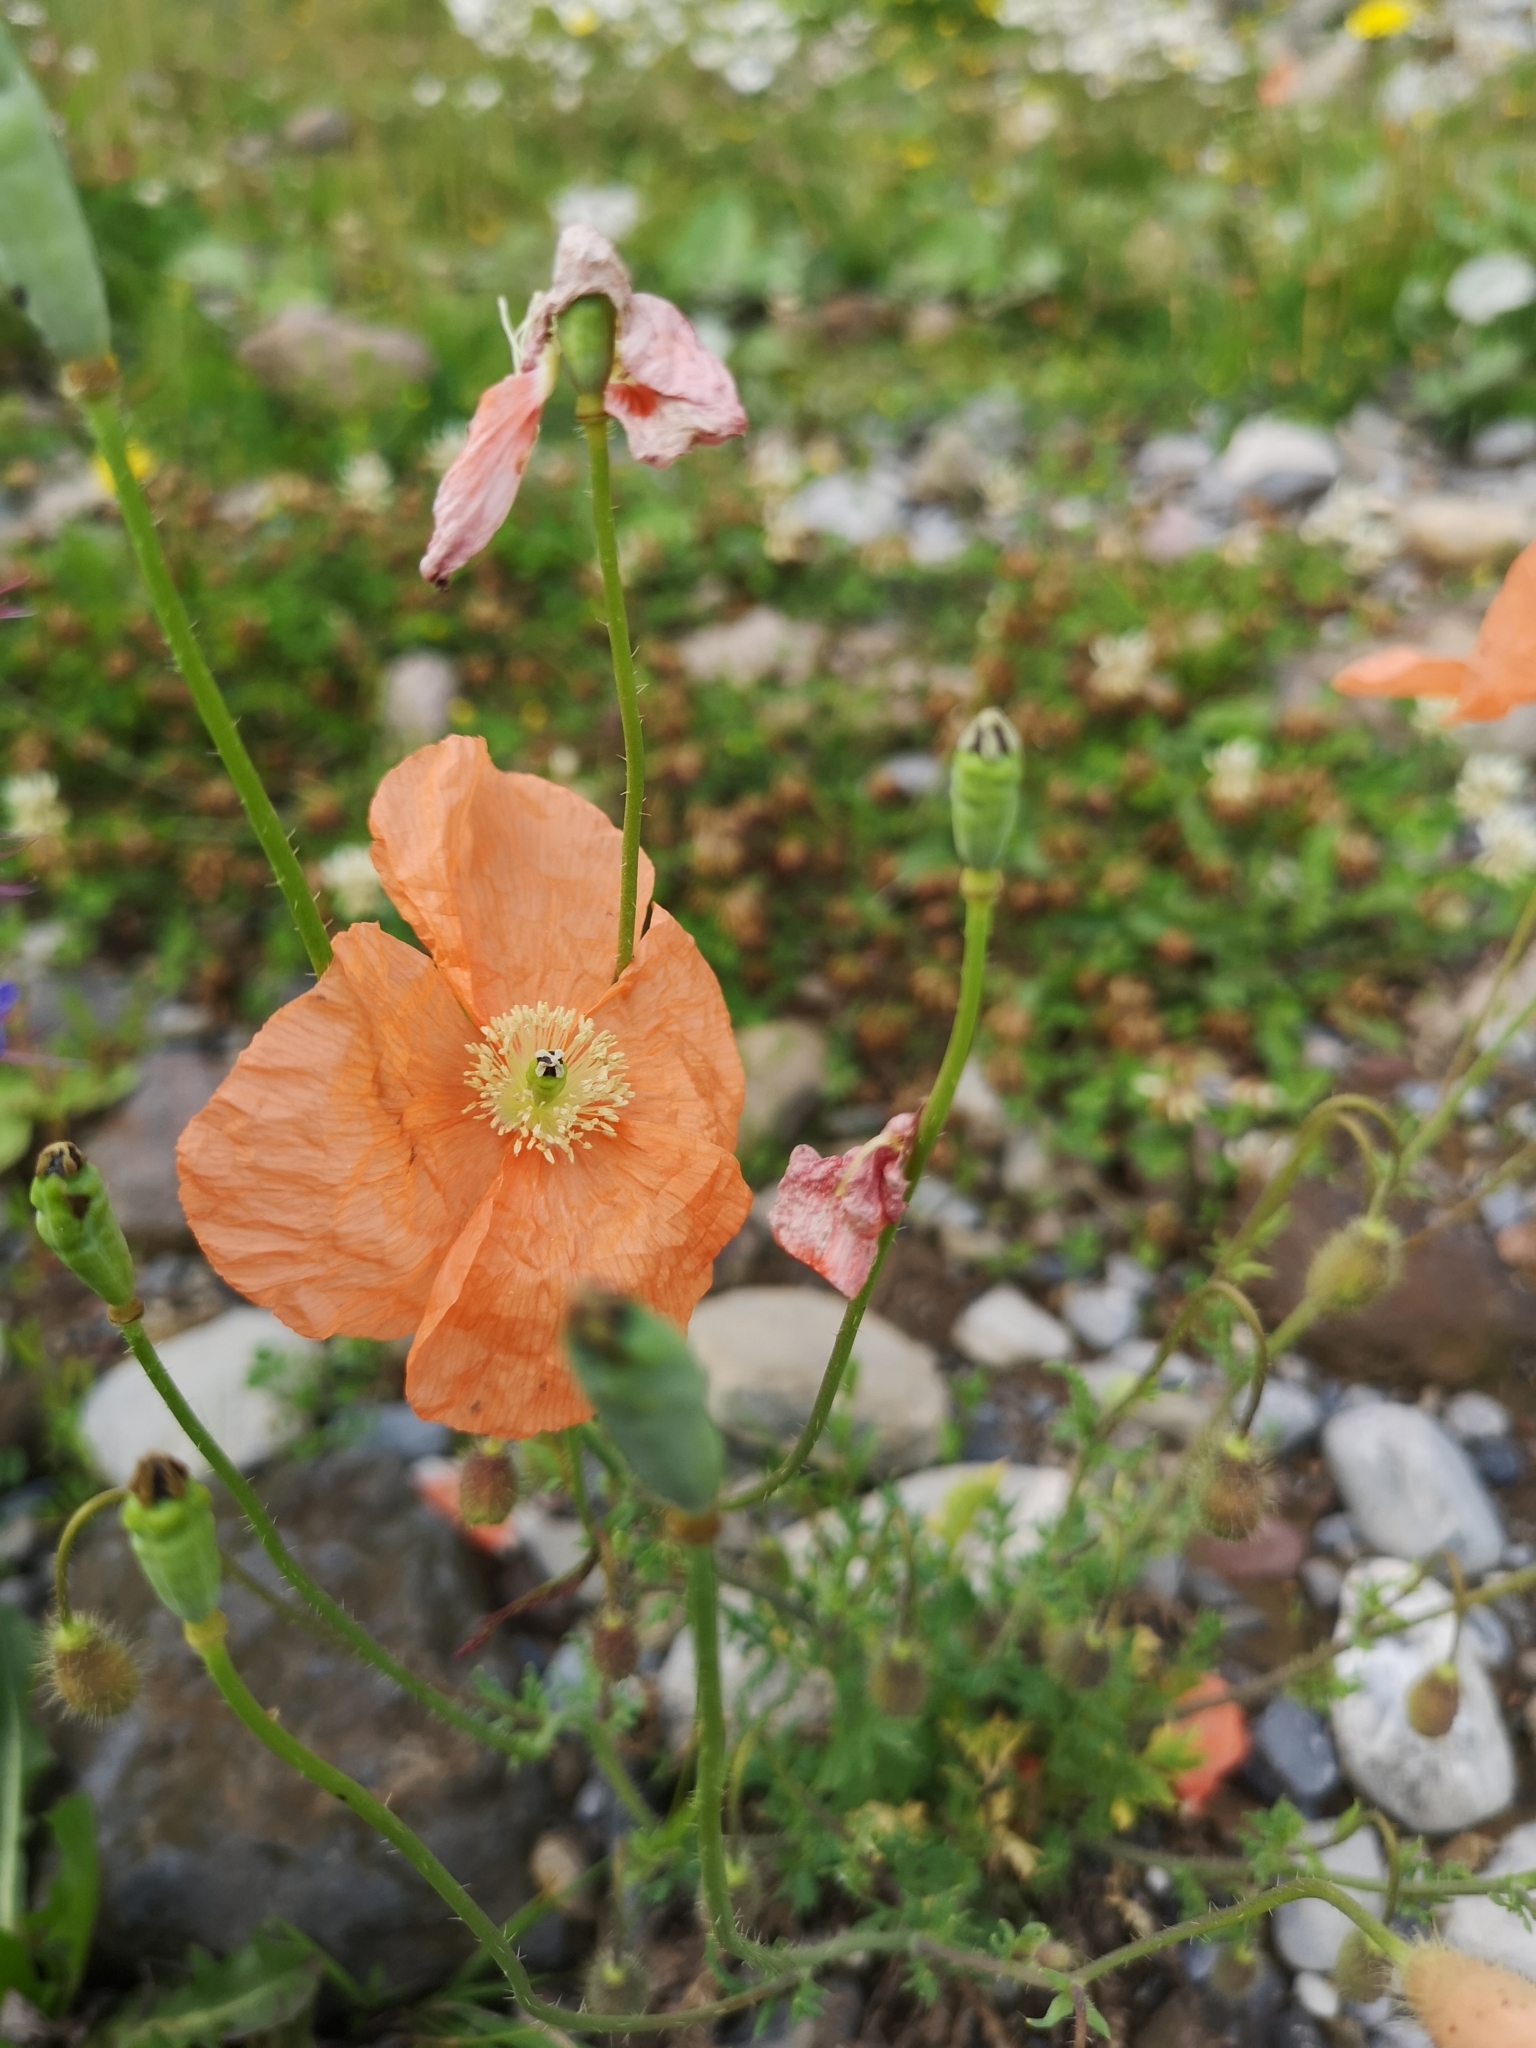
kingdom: Plantae
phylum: Tracheophyta
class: Magnoliopsida
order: Ranunculales
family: Papaveraceae
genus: Papaver
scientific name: Papaver armeniacum
